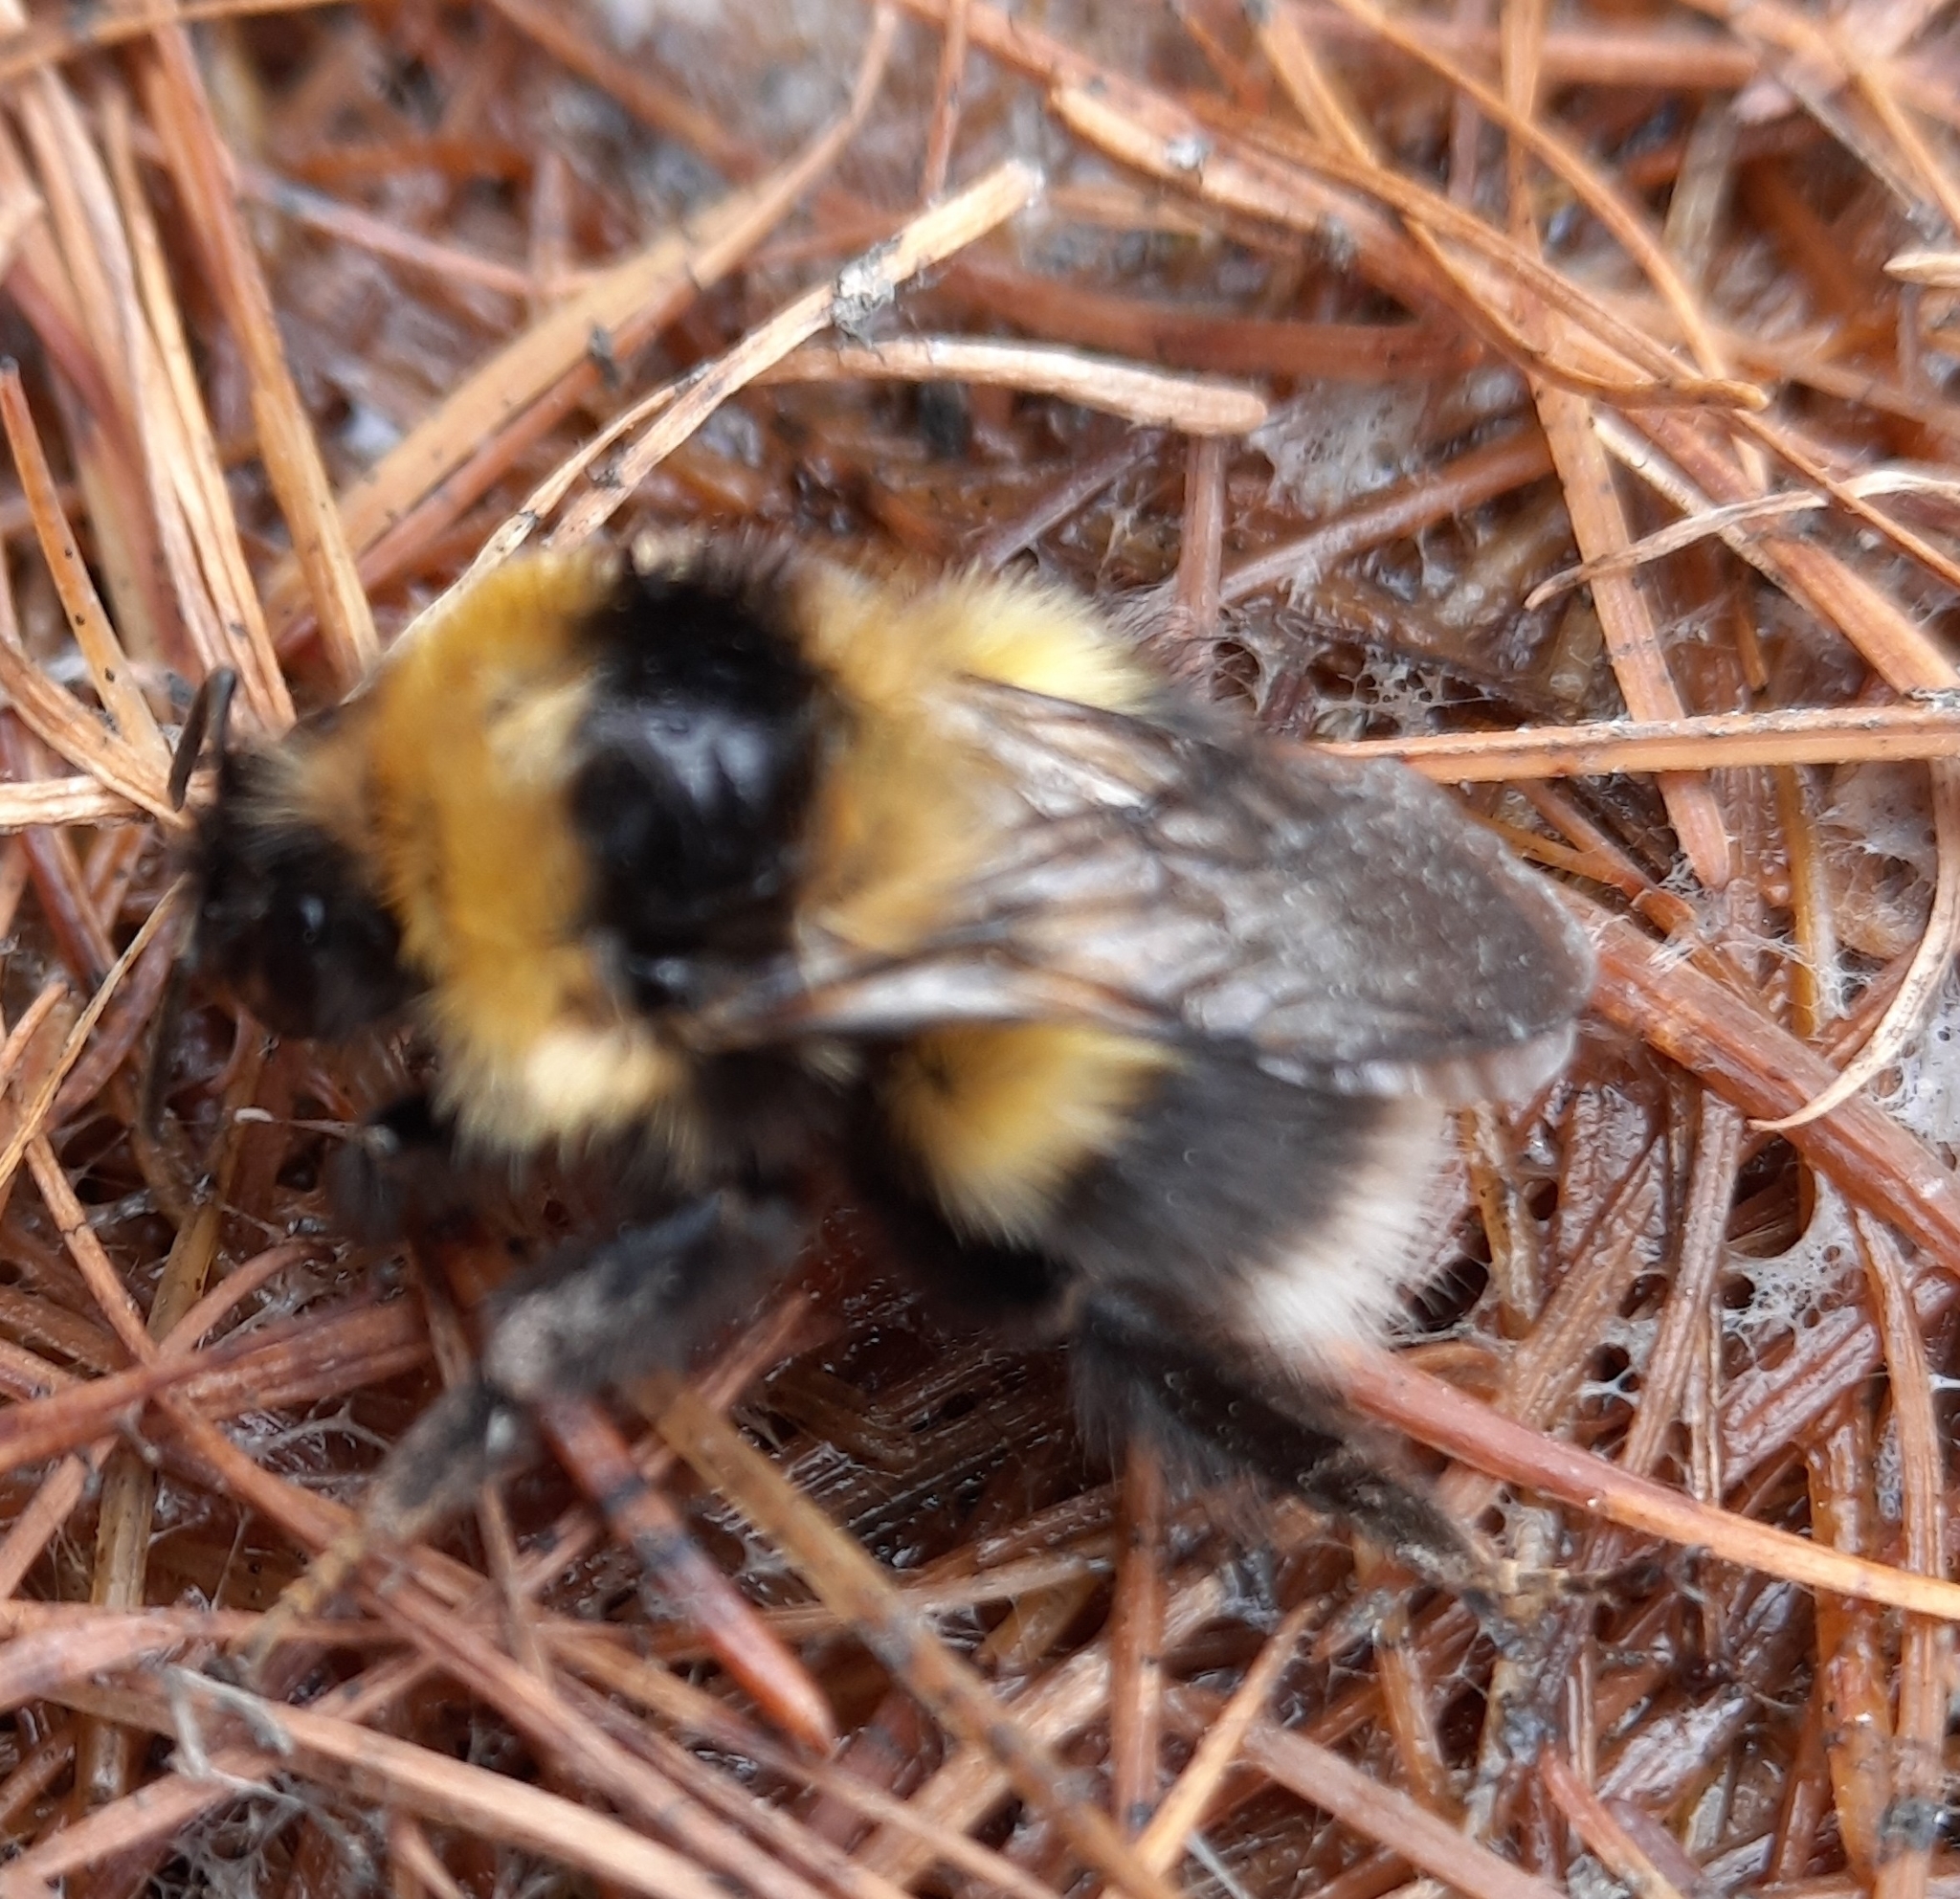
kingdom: Animalia
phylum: Arthropoda
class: Insecta
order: Hymenoptera
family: Apidae
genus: Bombus
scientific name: Bombus jonellus
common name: Heath humble-bee
